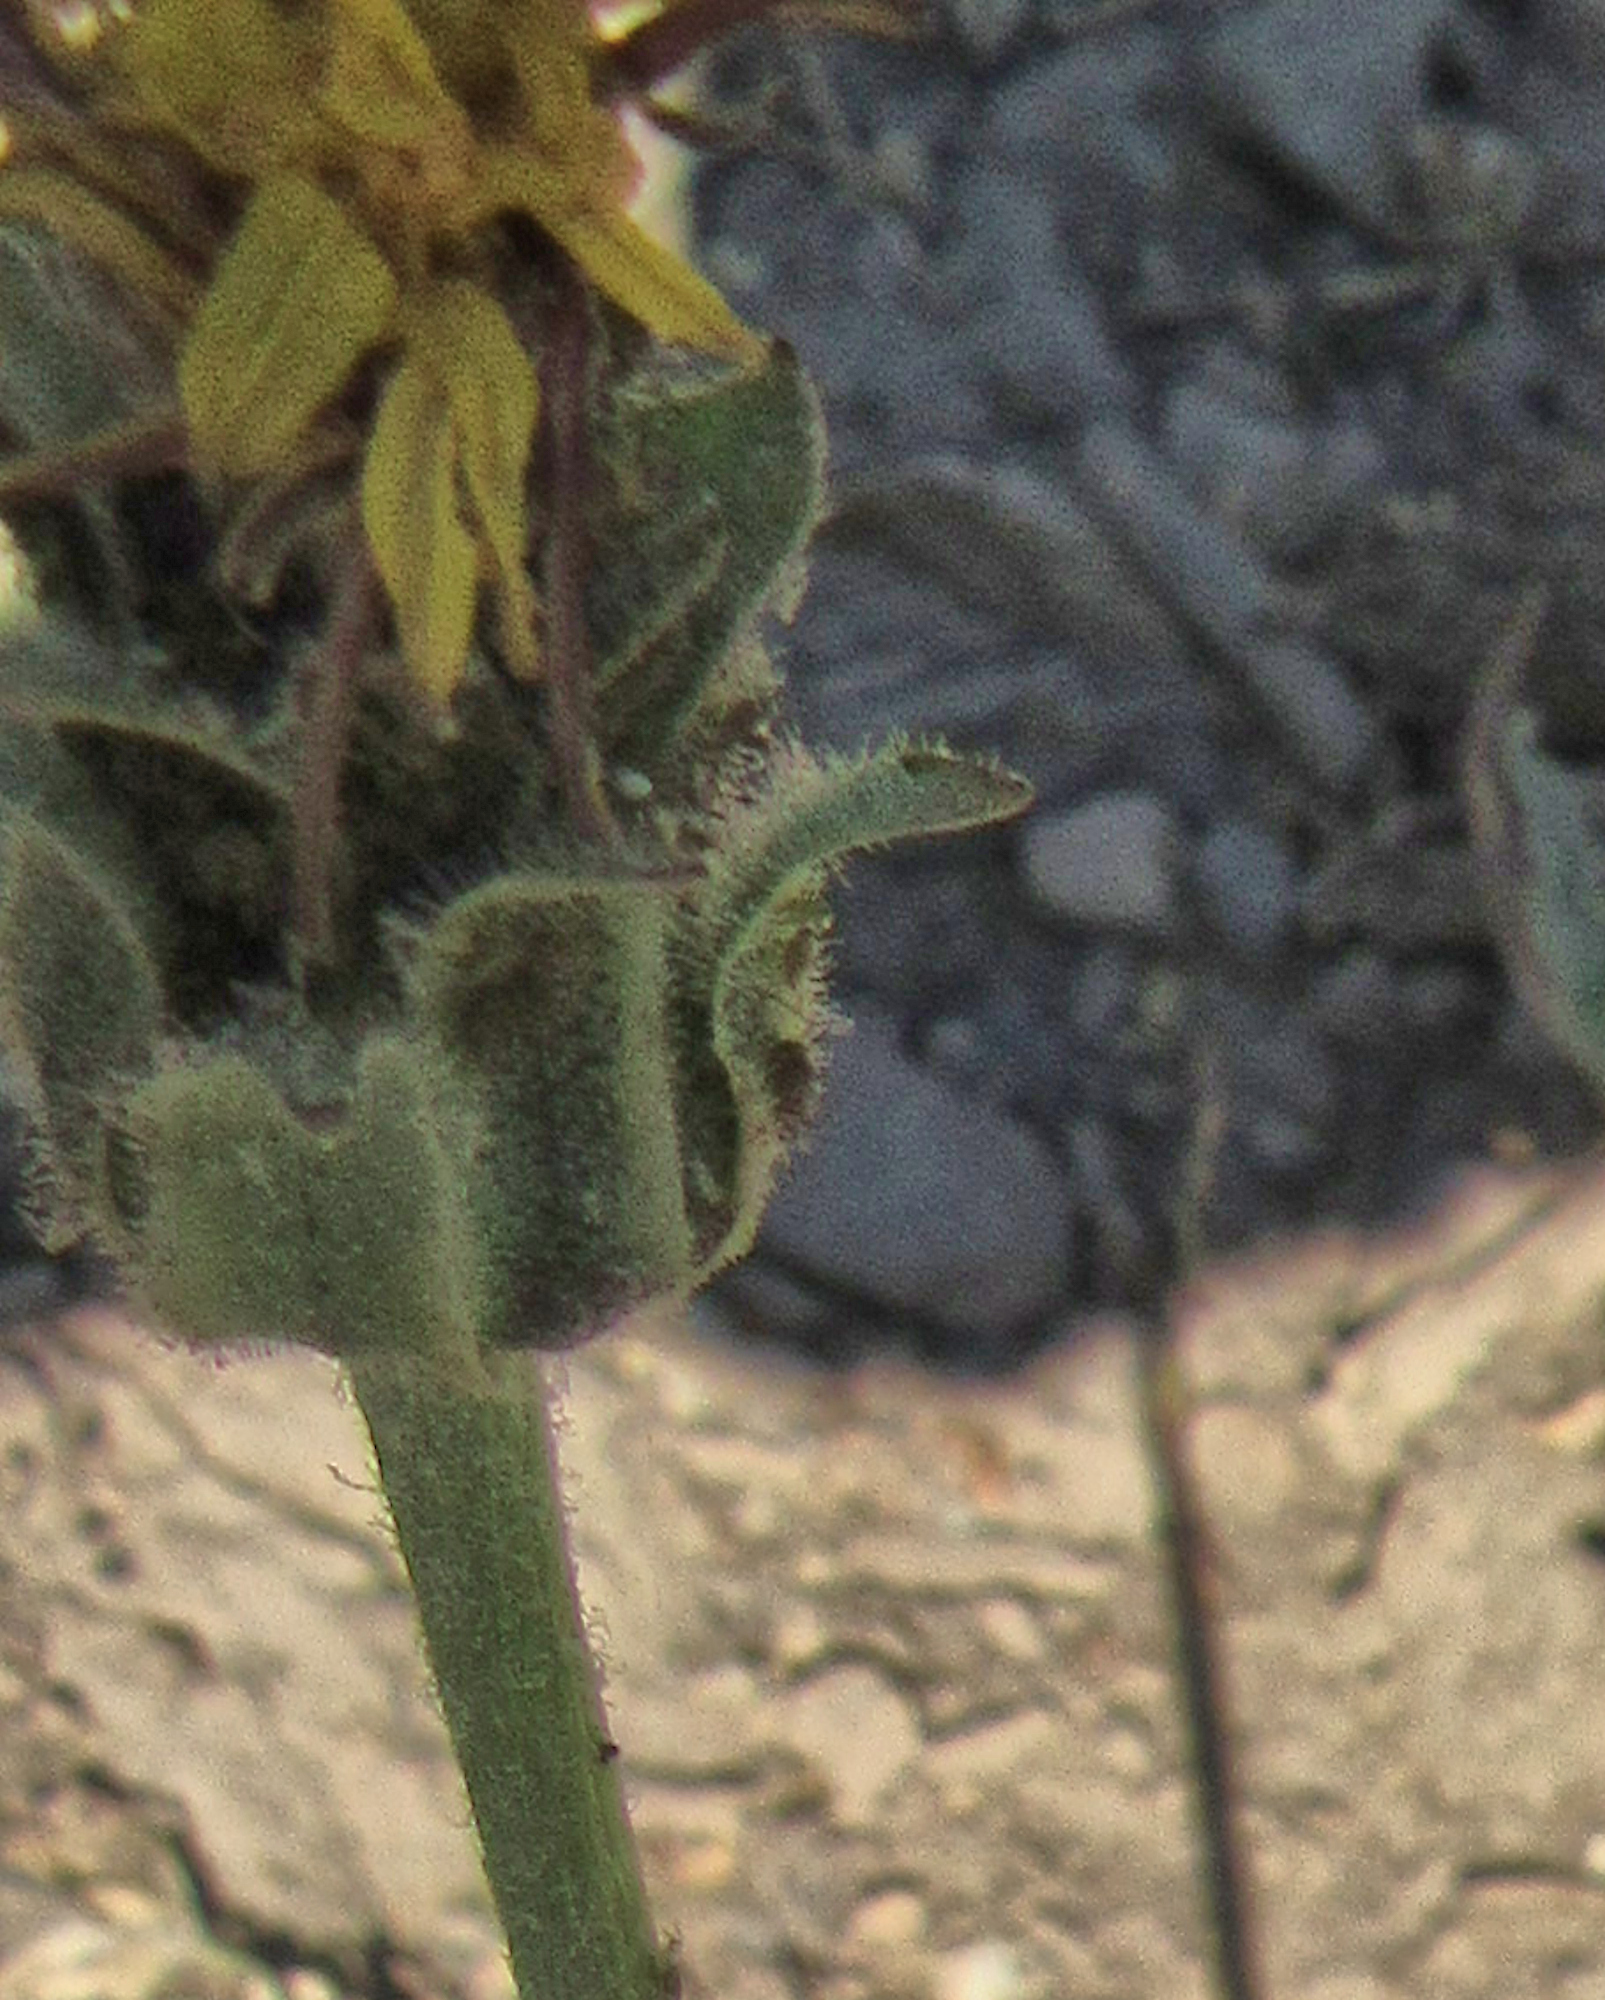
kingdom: Plantae
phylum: Tracheophyta
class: Magnoliopsida
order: Asterales
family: Asteraceae
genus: Agoseris
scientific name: Agoseris glauca
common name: Prairie agoseris
